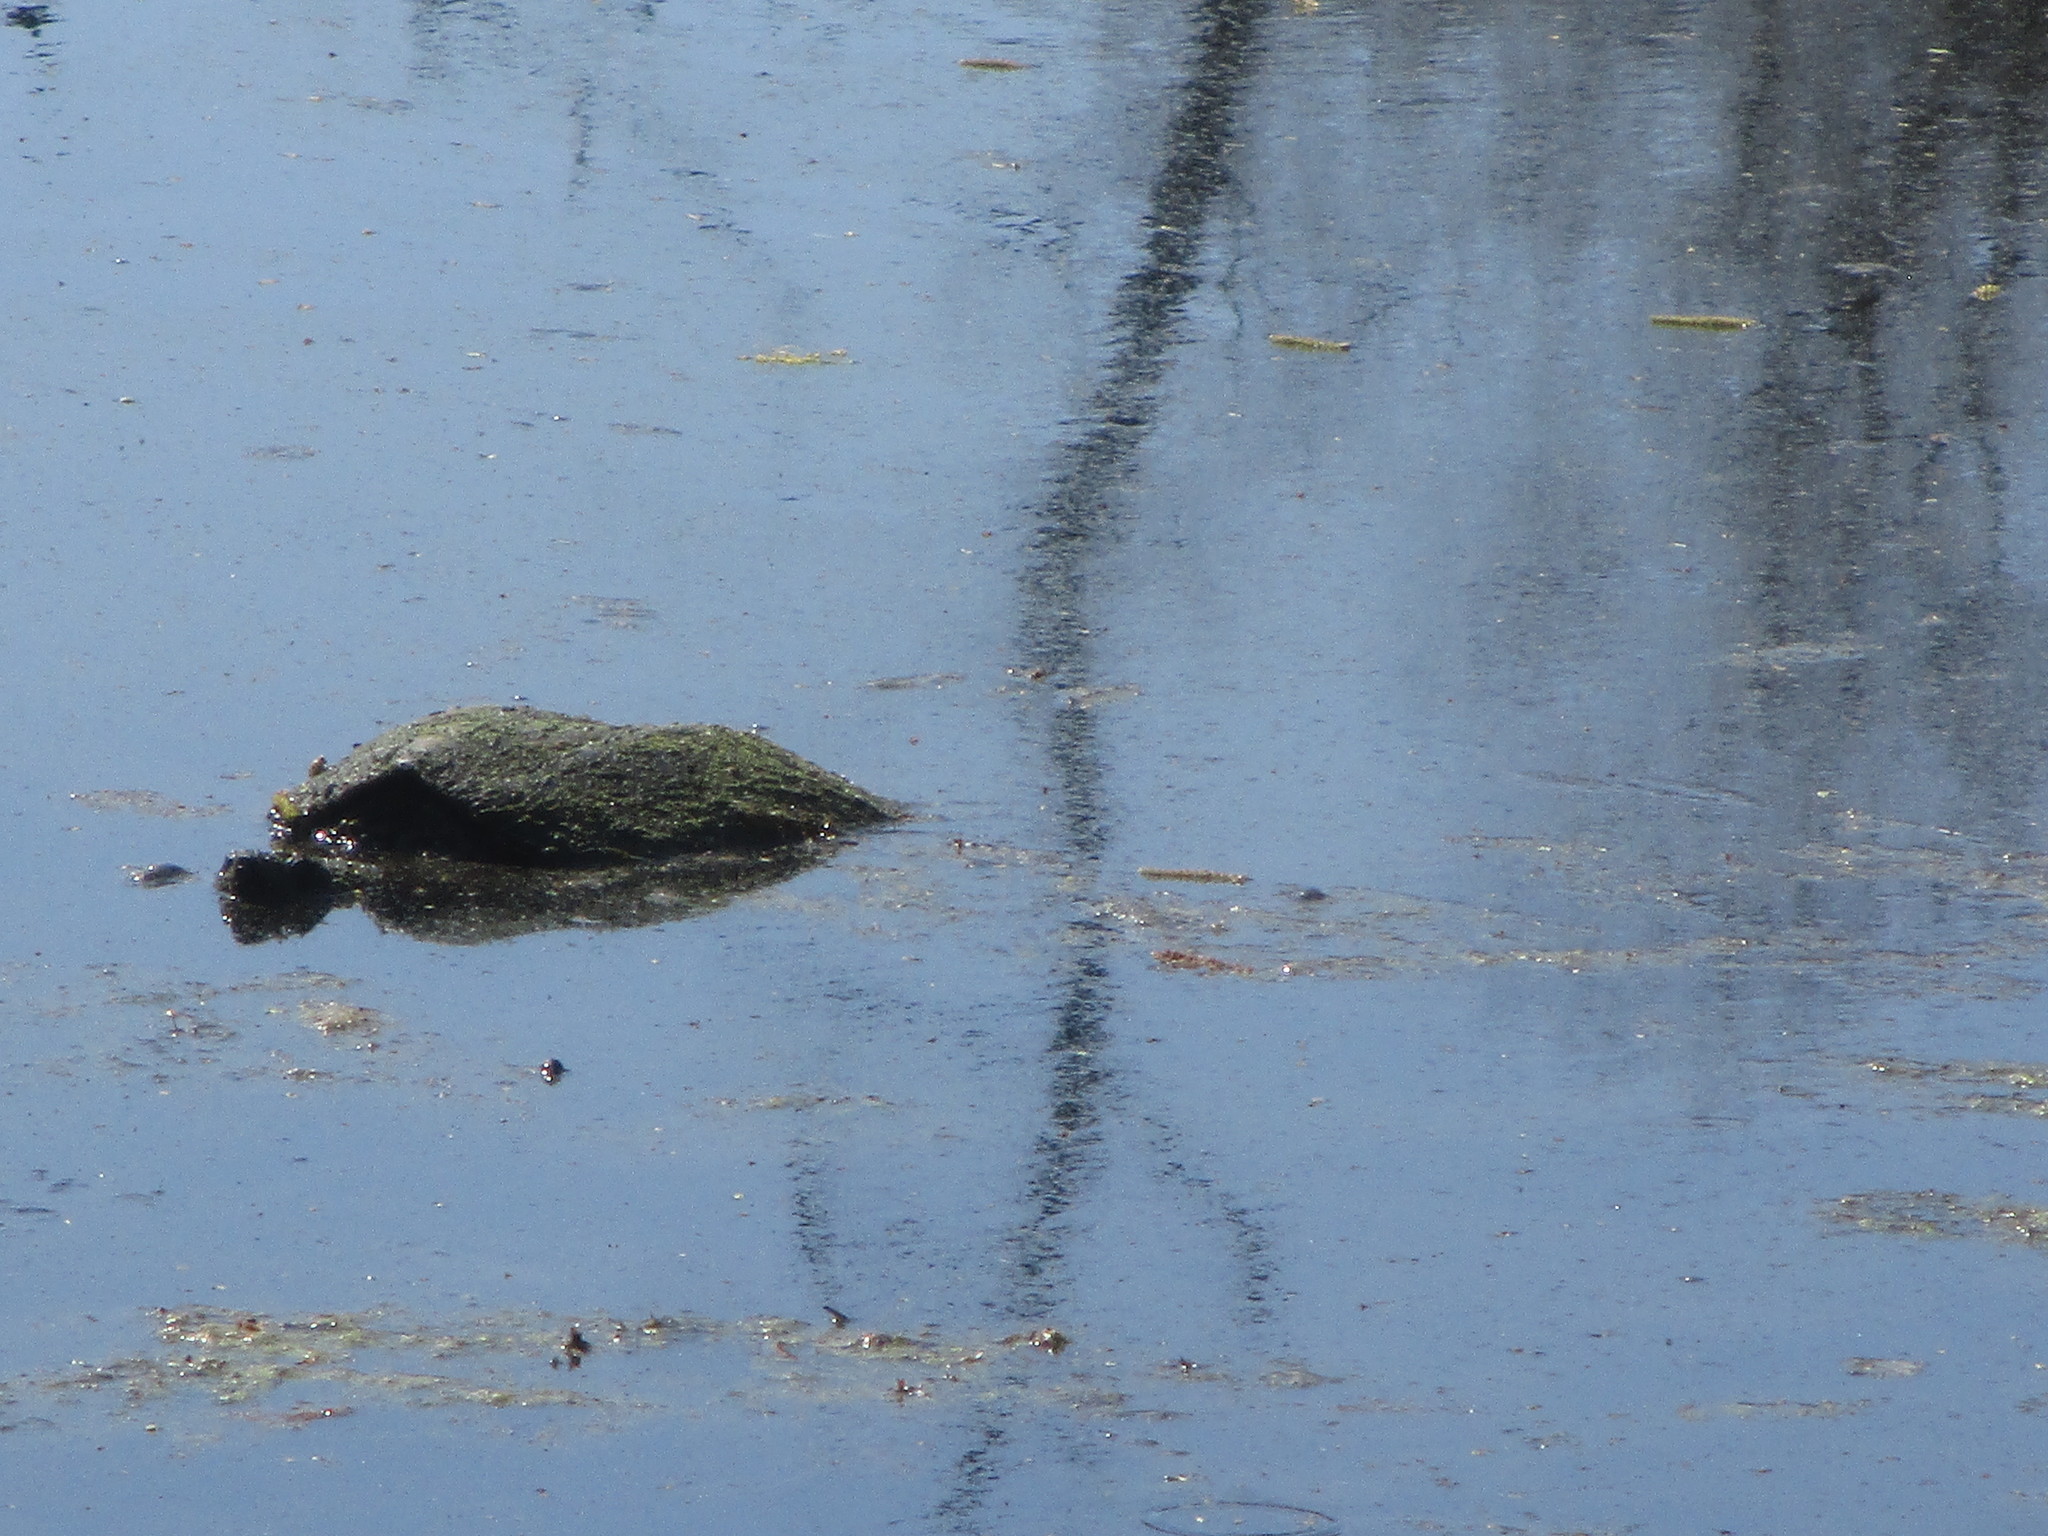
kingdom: Animalia
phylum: Chordata
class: Testudines
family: Chelydridae
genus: Chelydra
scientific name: Chelydra serpentina
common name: Common snapping turtle
